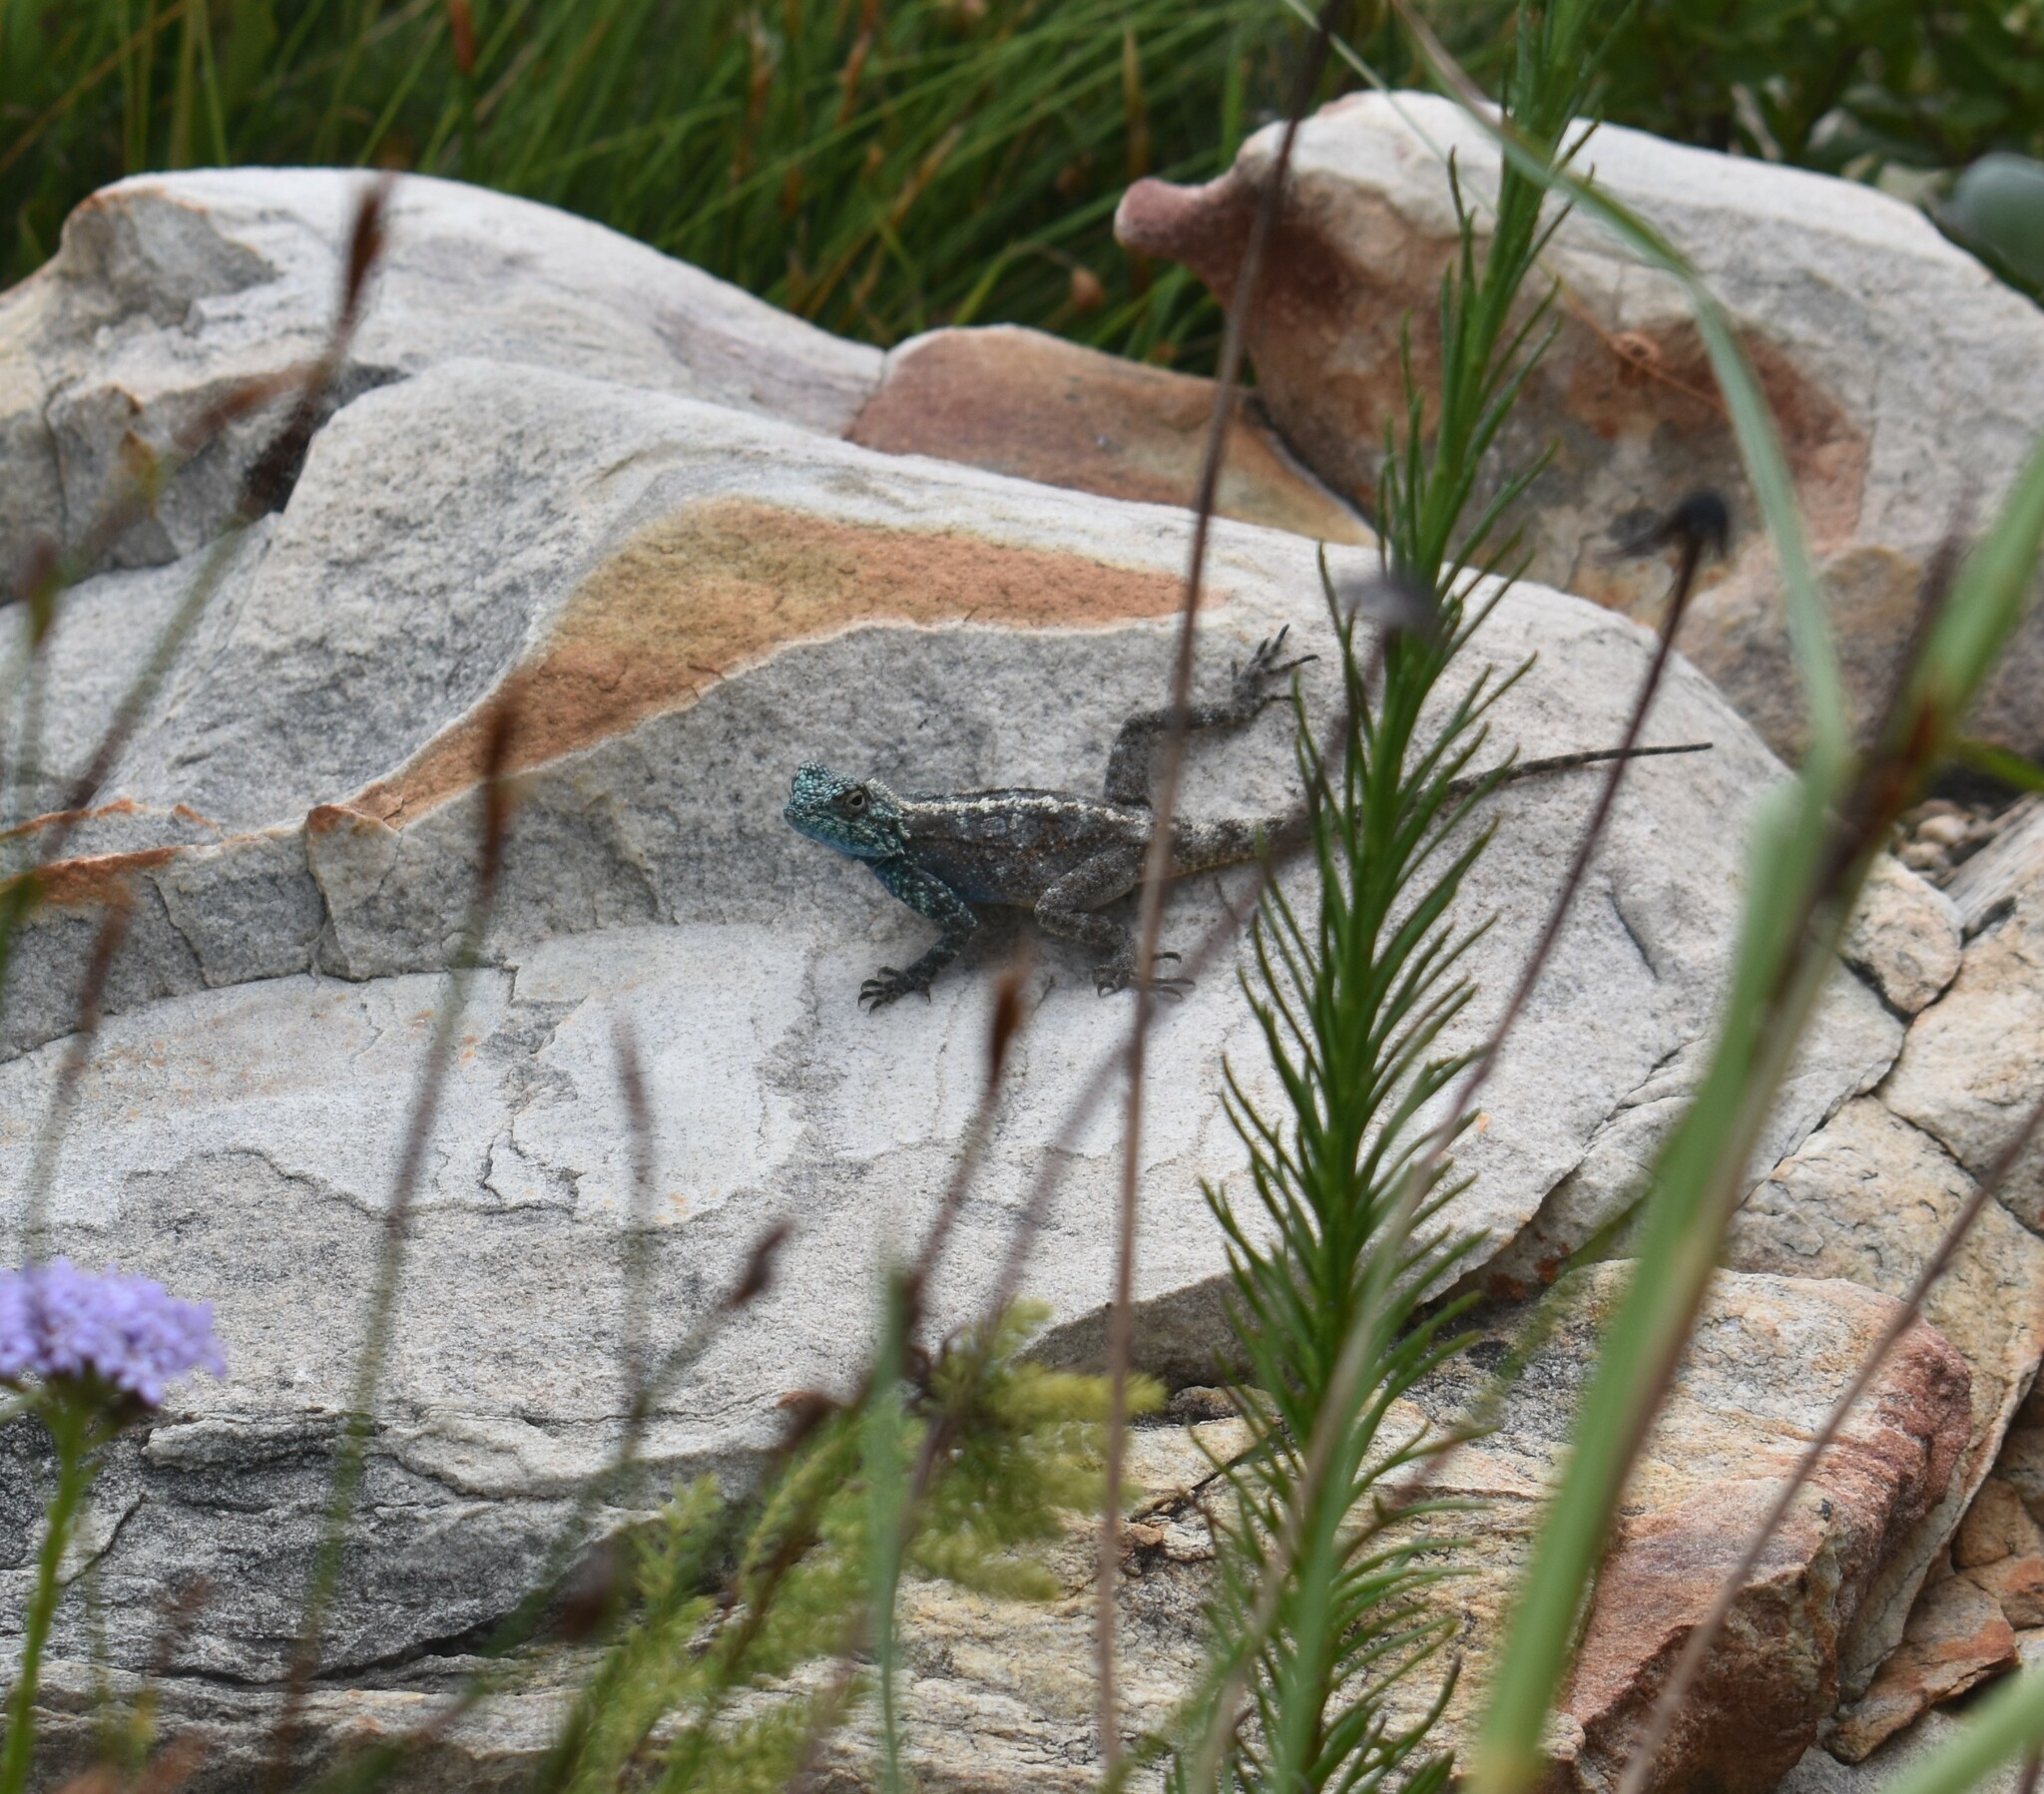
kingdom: Animalia
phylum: Chordata
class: Squamata
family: Agamidae
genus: Agama
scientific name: Agama atra
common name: Southern african rock agama
